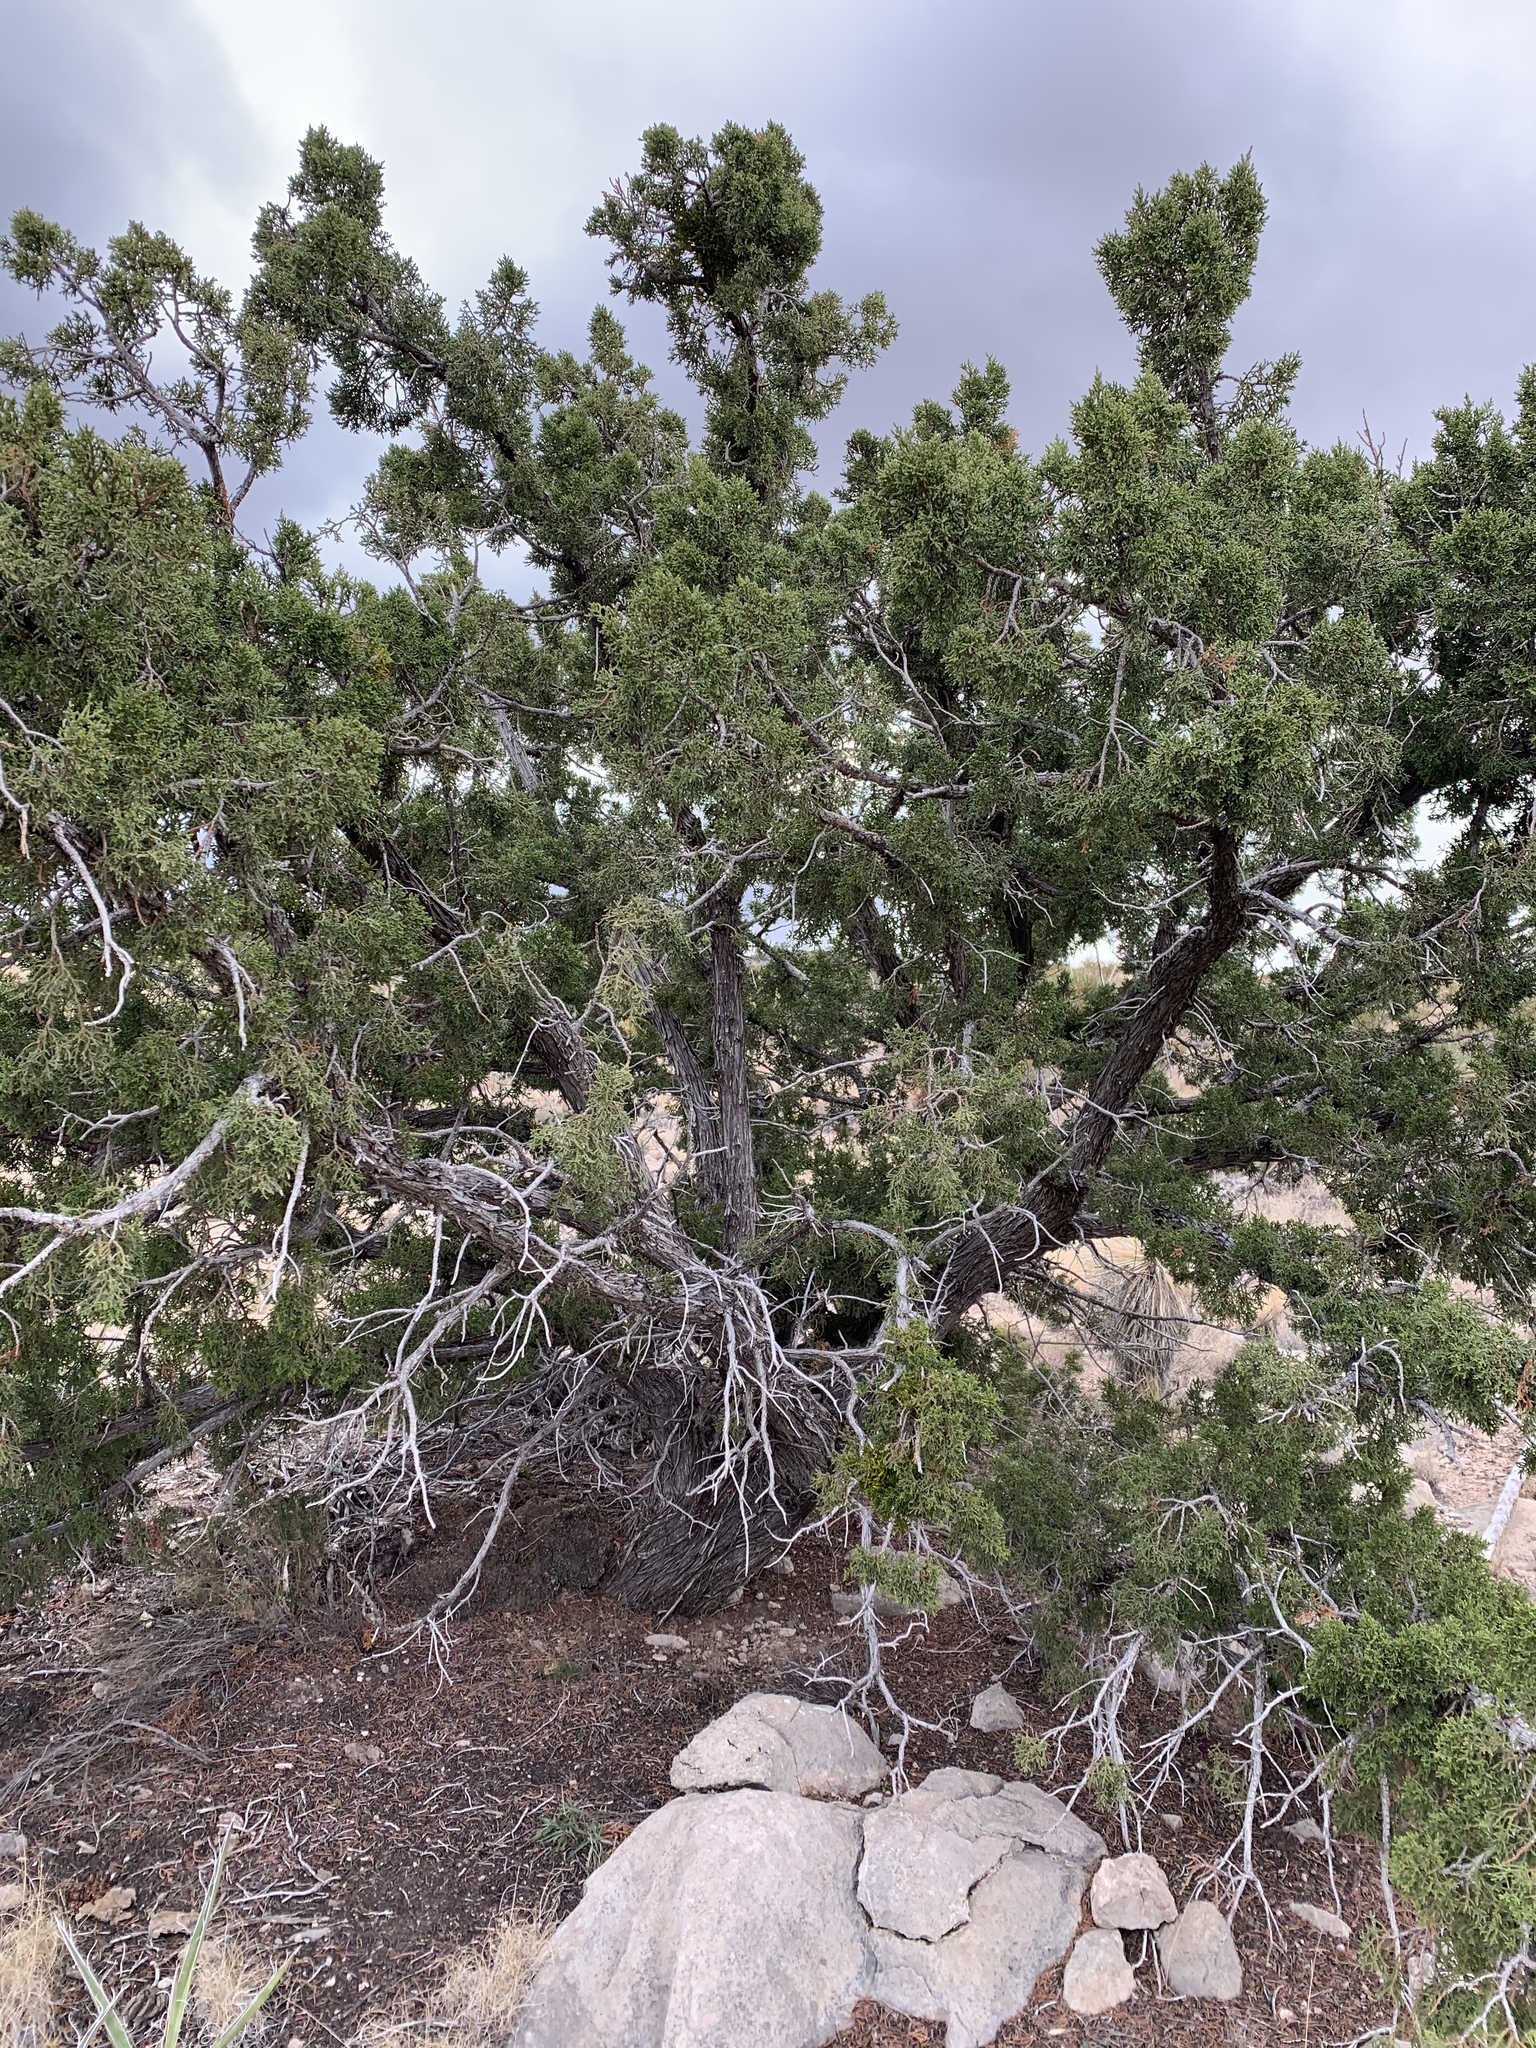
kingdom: Plantae
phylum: Tracheophyta
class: Pinopsida
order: Pinales
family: Cupressaceae
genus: Juniperus
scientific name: Juniperus monosperma
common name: One-seed juniper
